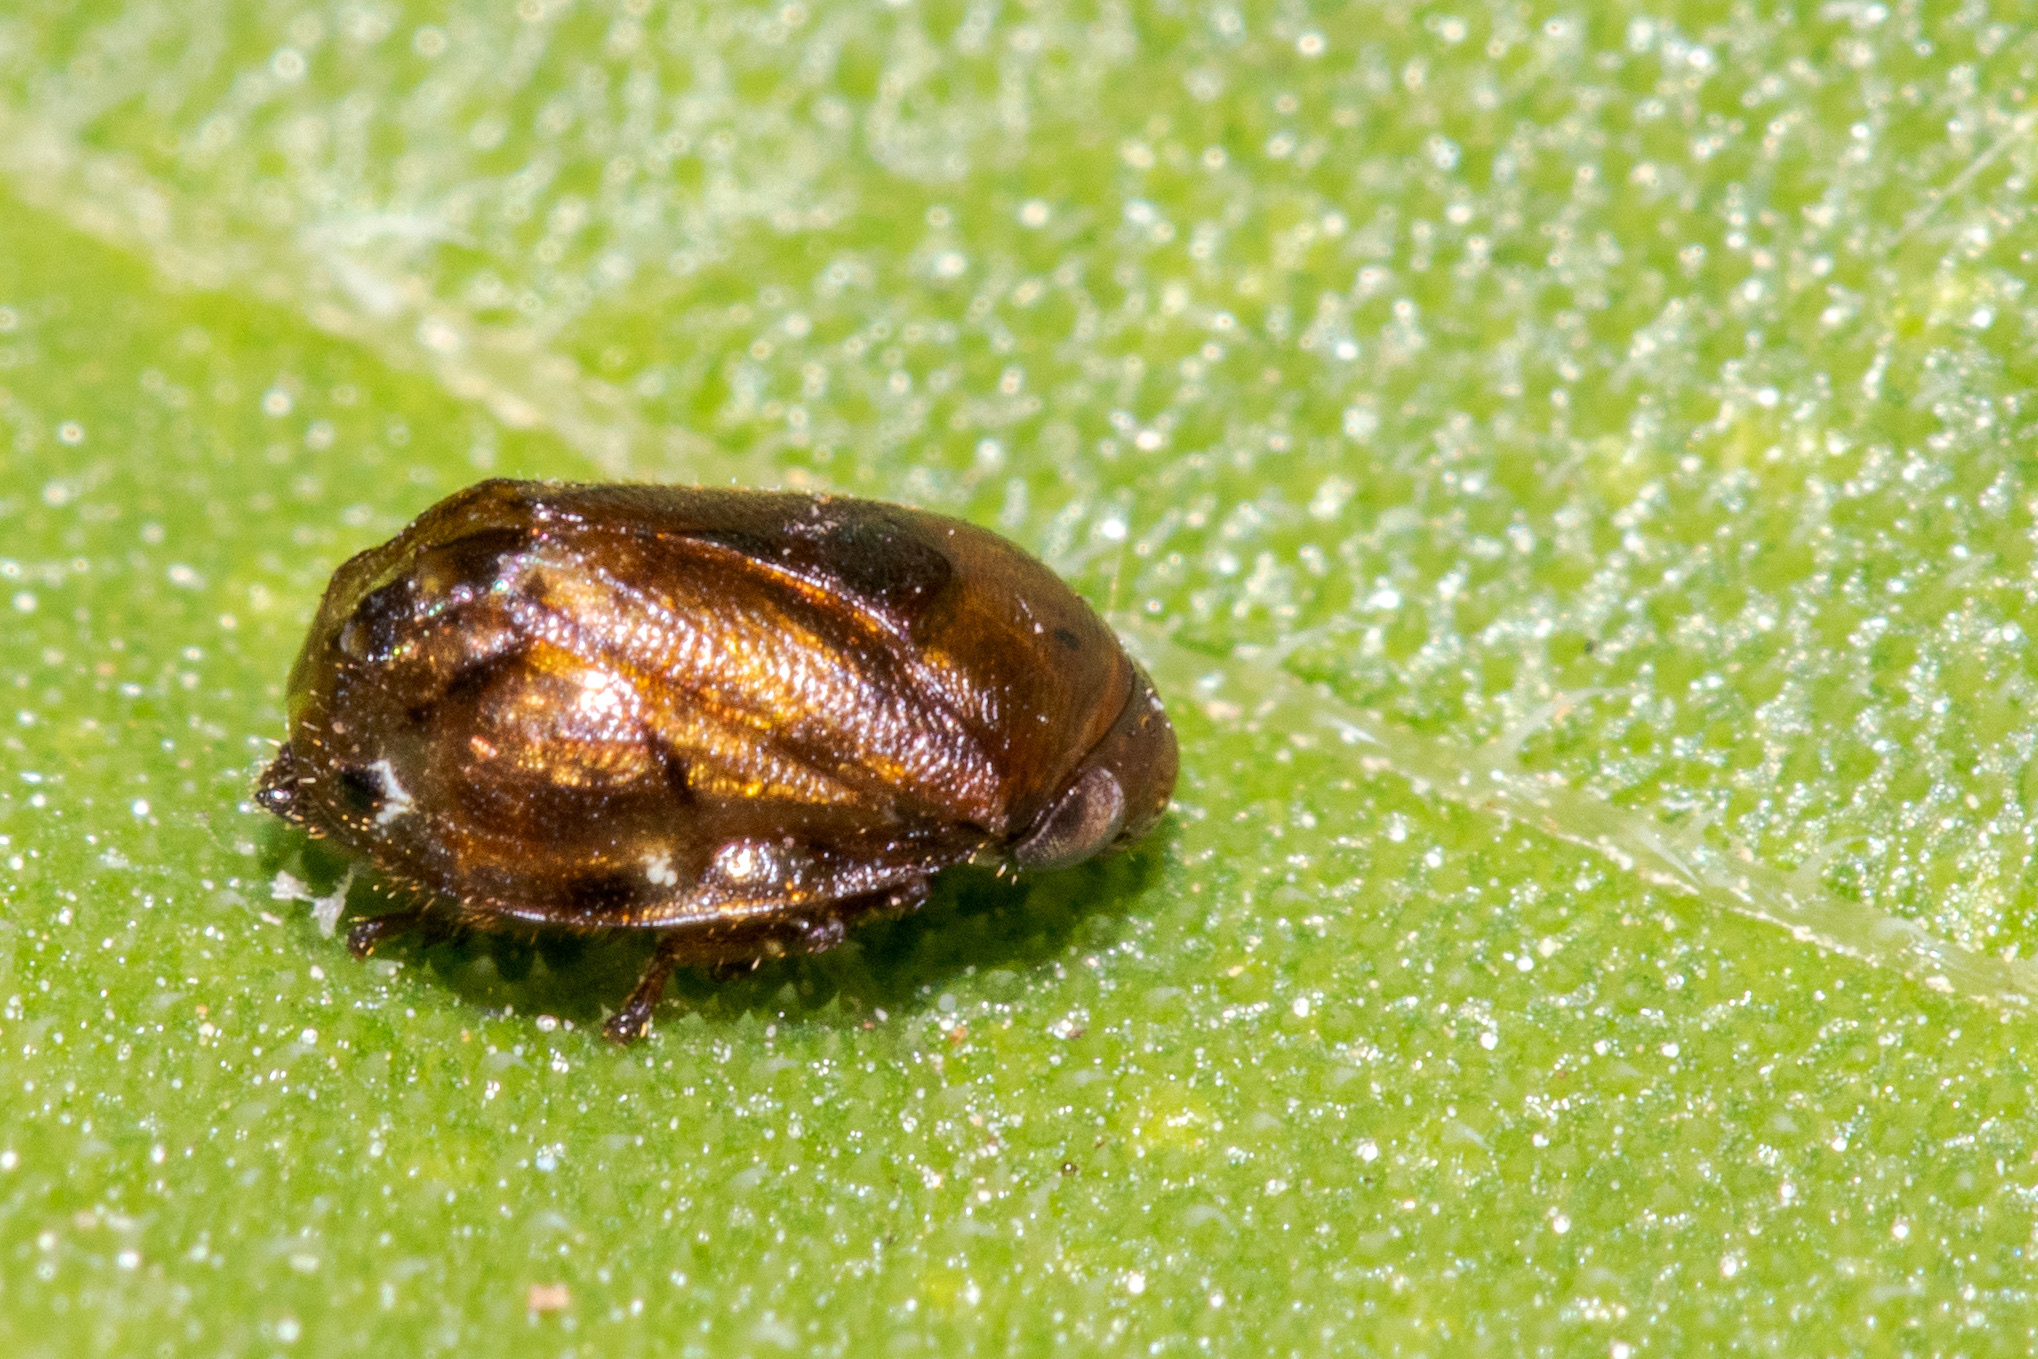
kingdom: Animalia
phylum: Arthropoda
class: Insecta
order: Hemiptera
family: Clastopteridae
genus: Clastoptera
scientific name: Clastoptera xanthocephala
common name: Sunflower spittlebug
